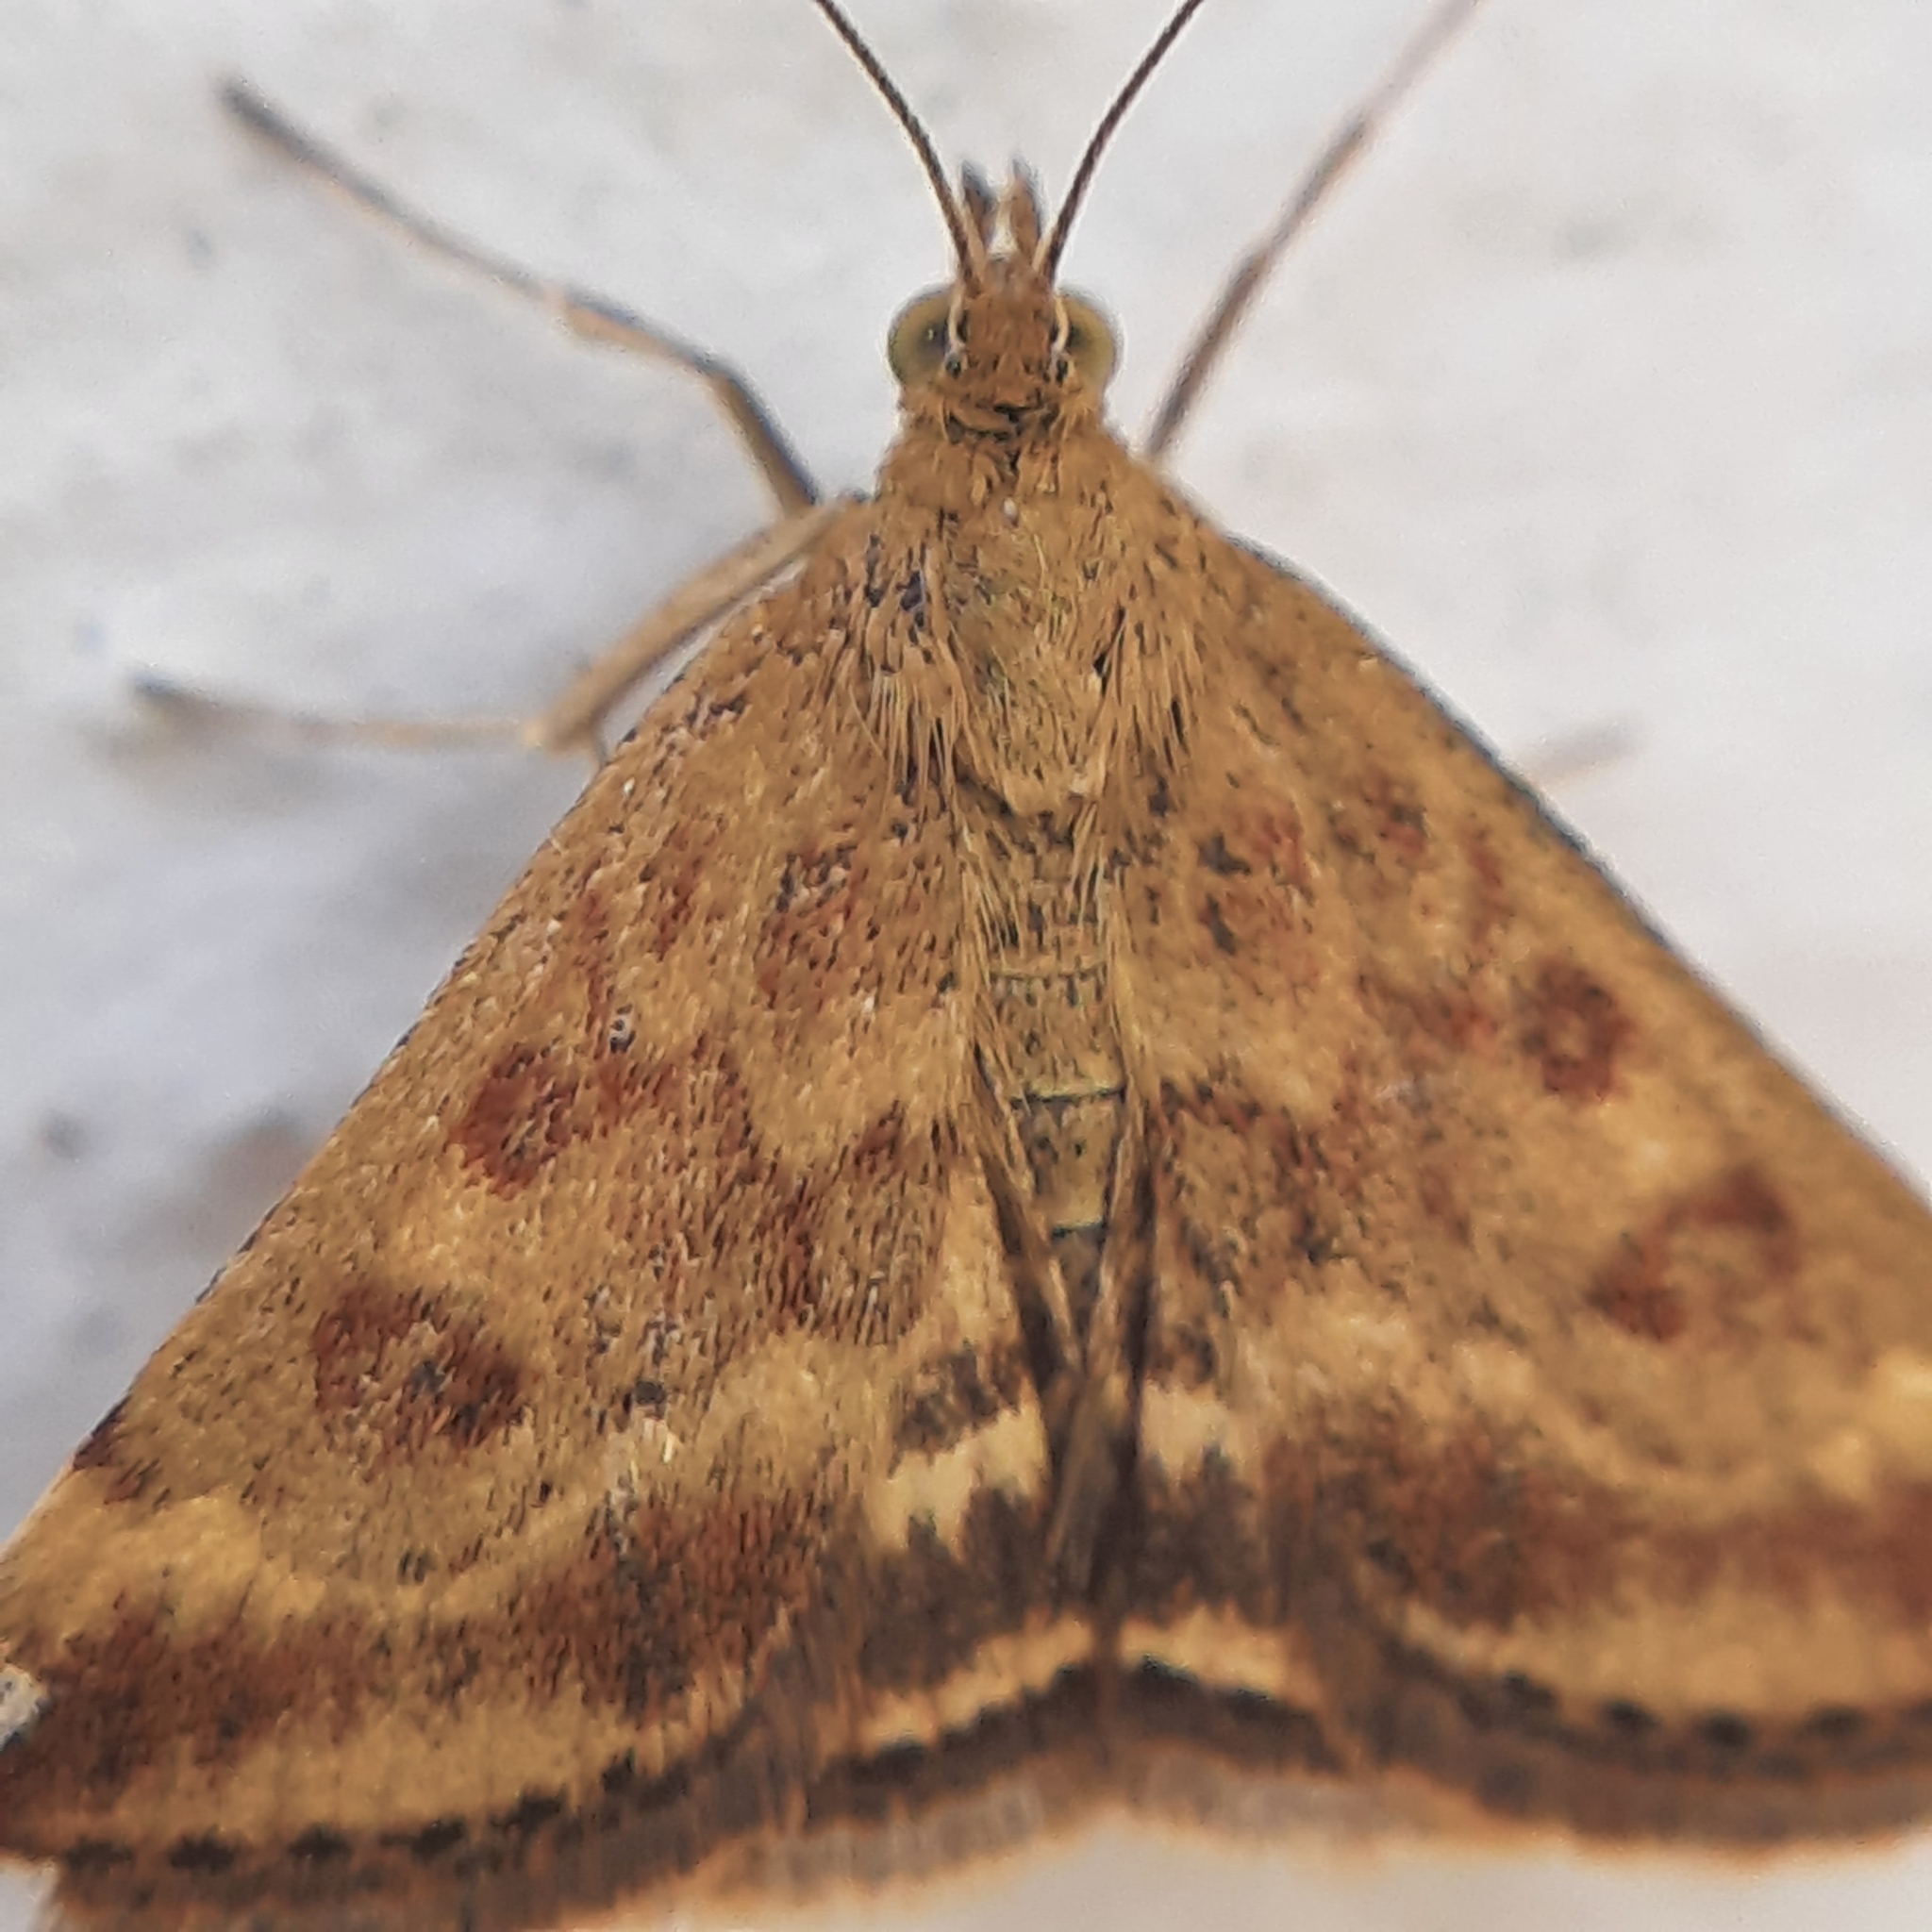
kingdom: Animalia
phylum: Arthropoda
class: Insecta
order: Lepidoptera
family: Crambidae
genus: Pyrausta
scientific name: Pyrausta despicata
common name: Straw-barred pearl
